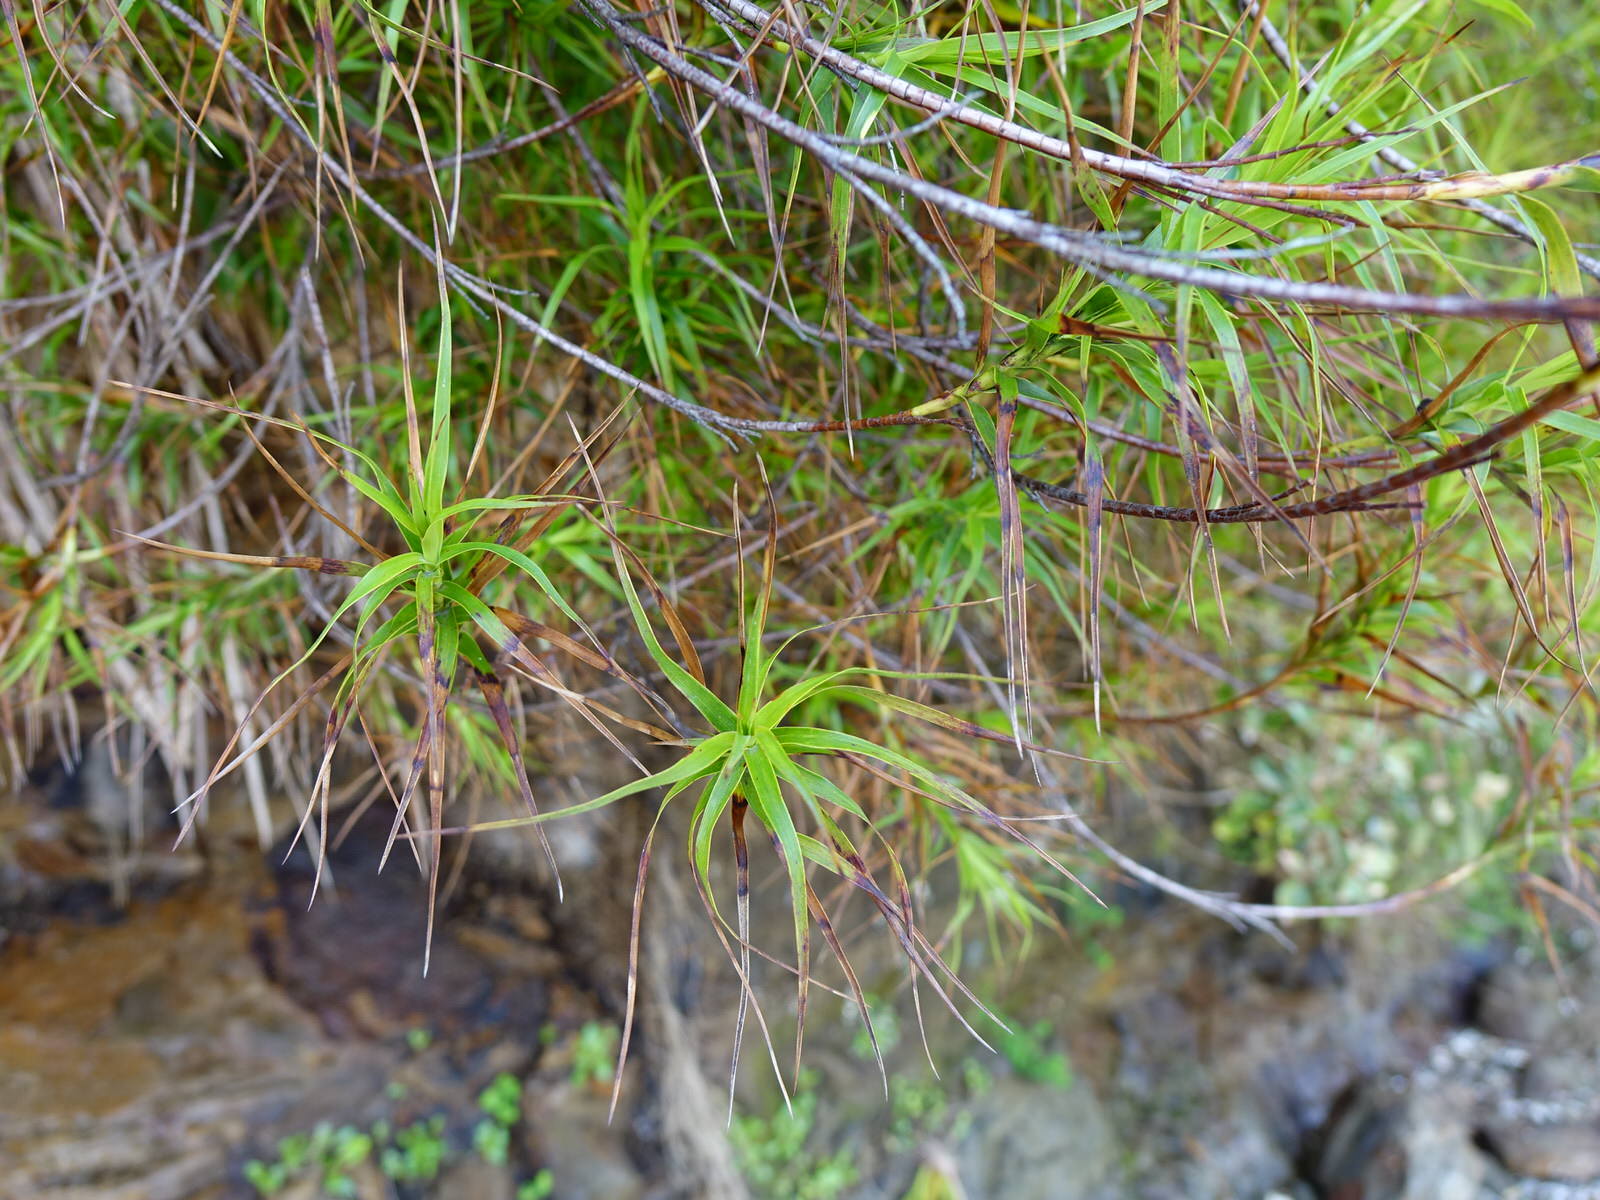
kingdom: Plantae
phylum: Tracheophyta
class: Magnoliopsida
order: Ericales
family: Ericaceae
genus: Dracophyllum
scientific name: Dracophyllum sinclairii
